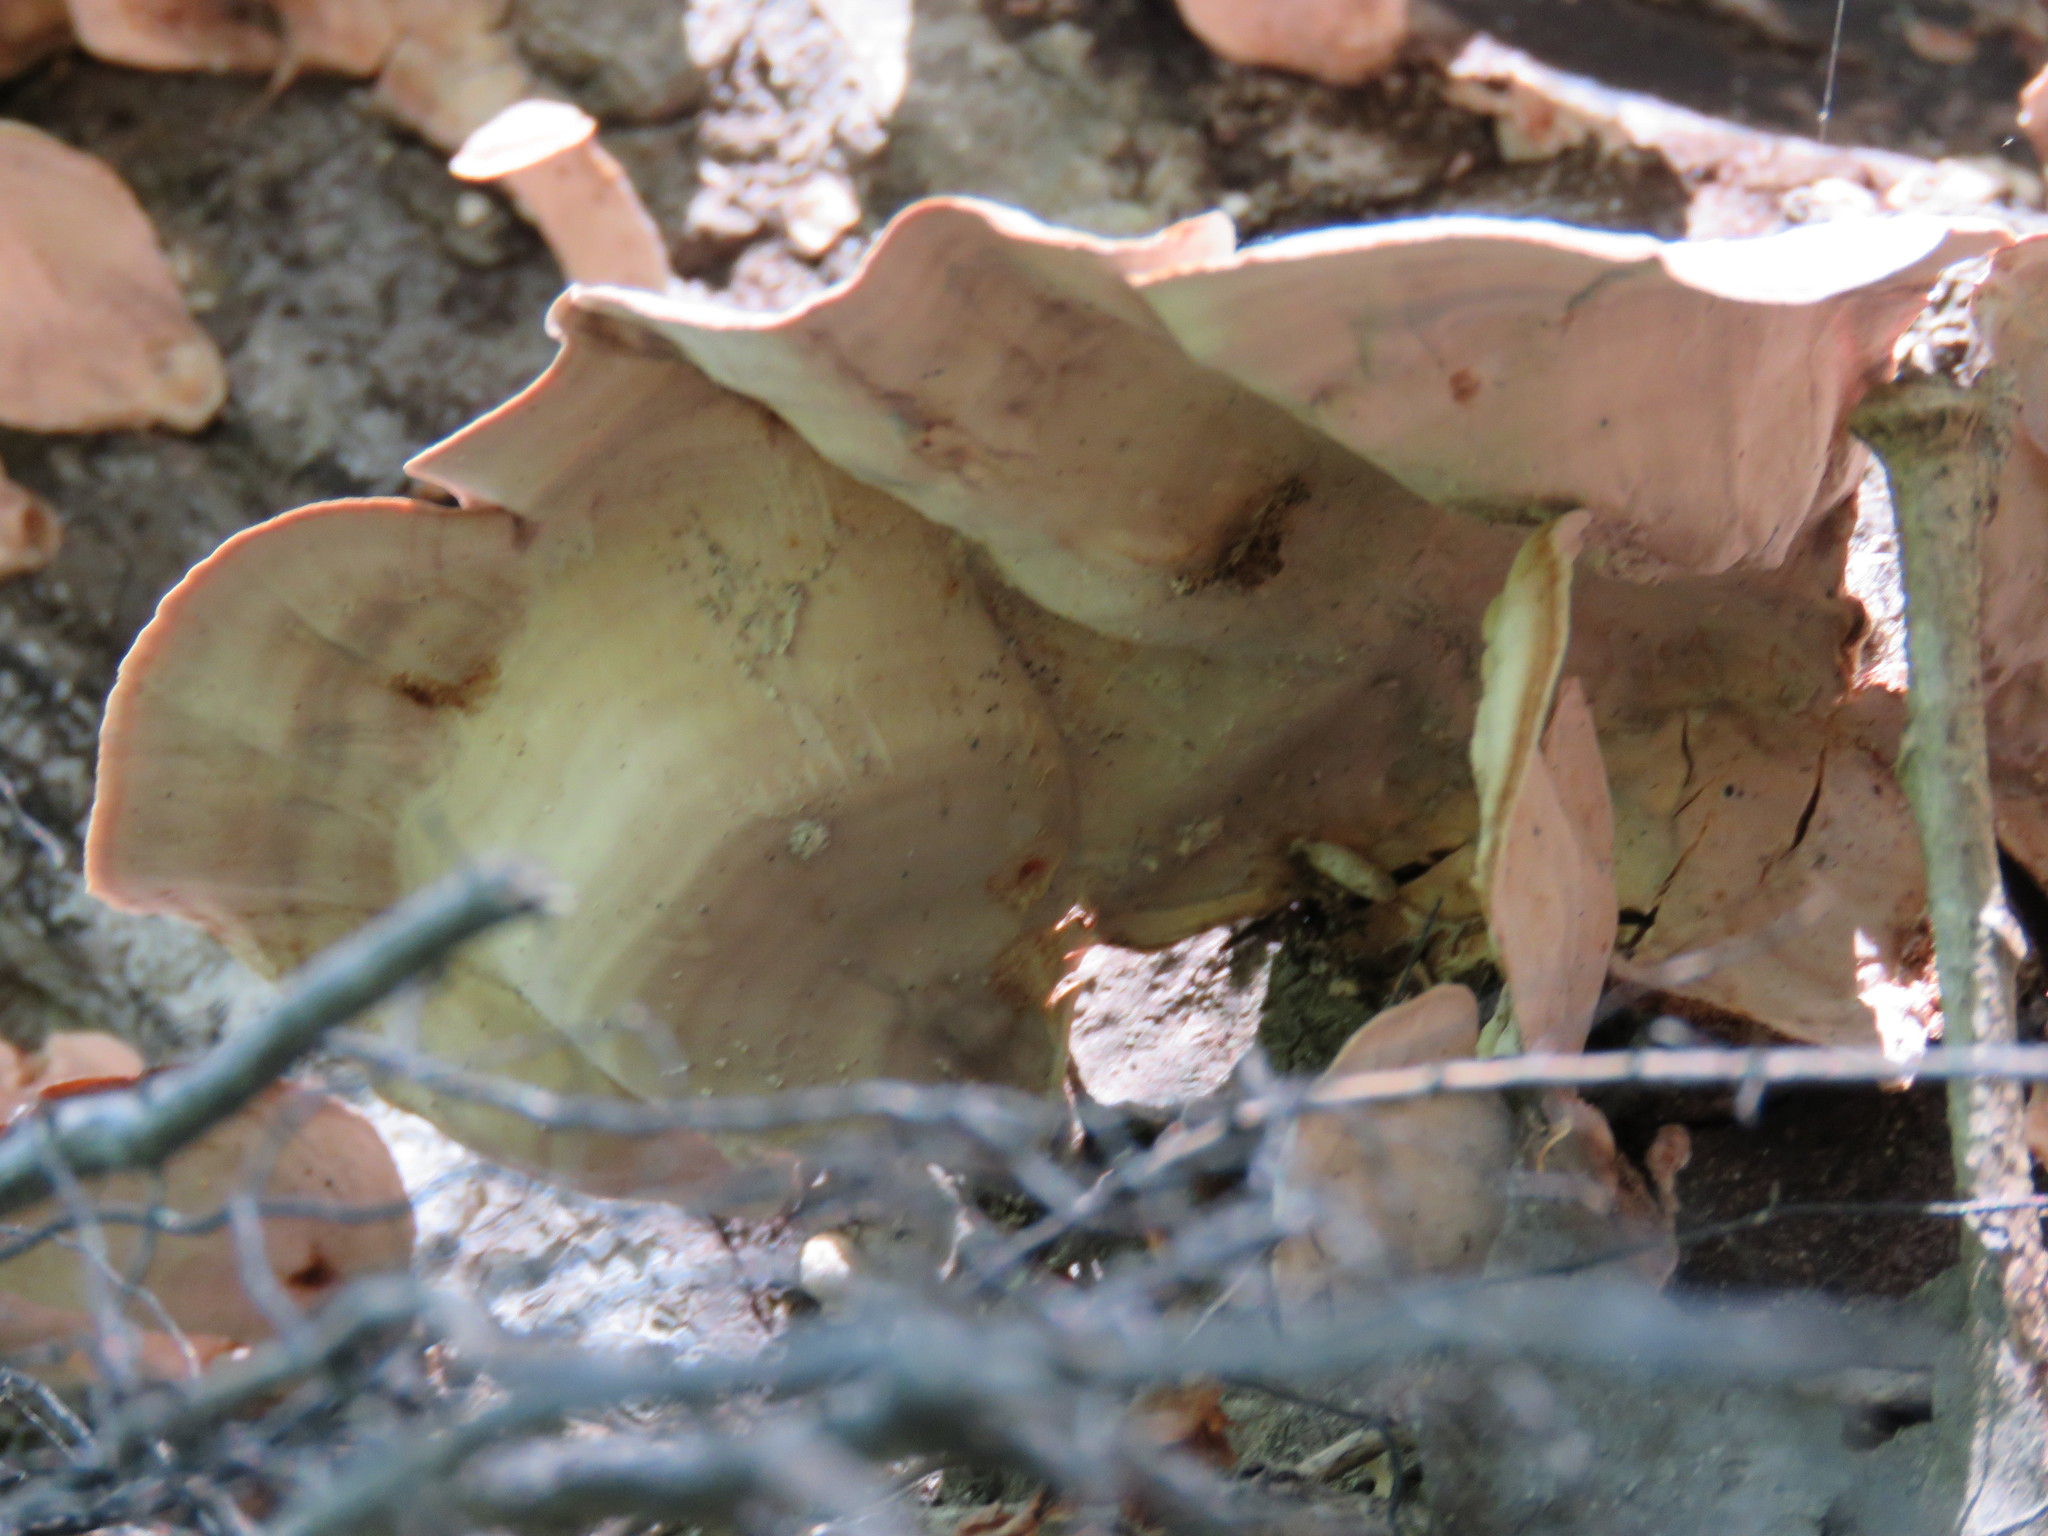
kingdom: Fungi
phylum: Basidiomycota
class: Agaricomycetes
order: Russulales
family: Stereaceae
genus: Stereum
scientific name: Stereum ostrea
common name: False turkeytail
